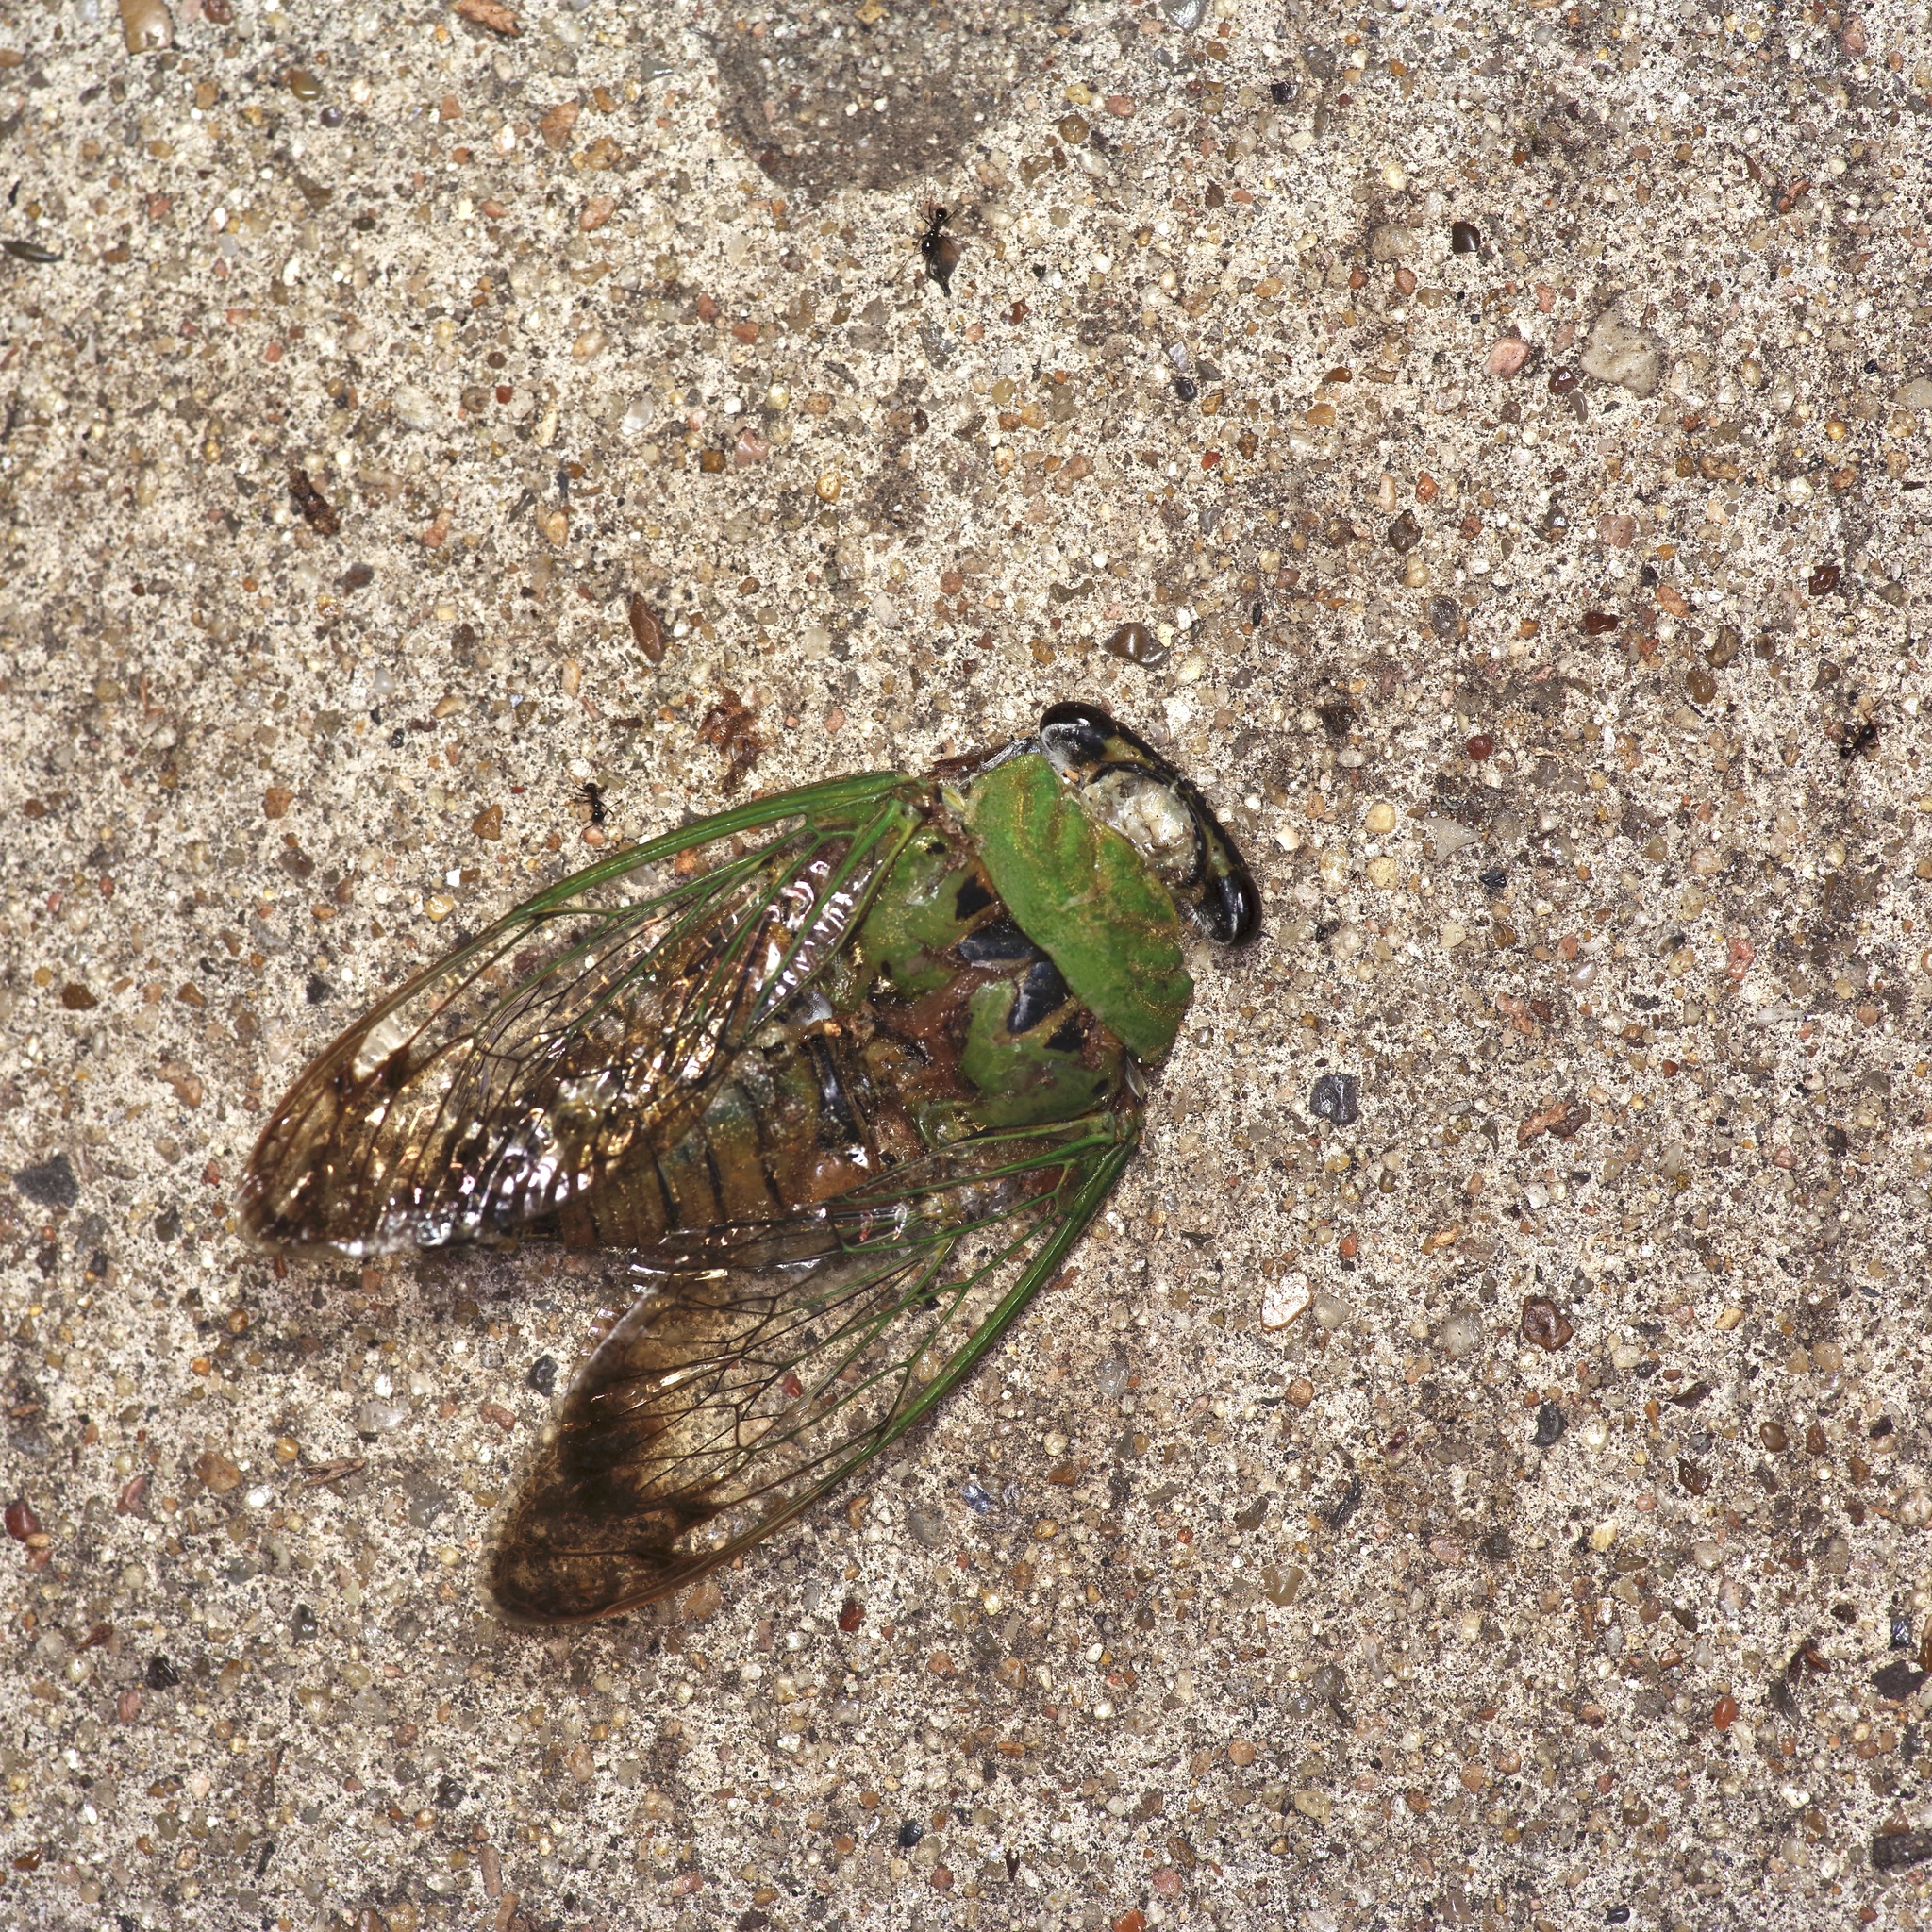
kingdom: Animalia
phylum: Arthropoda
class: Insecta
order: Hemiptera
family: Cicadidae
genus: Neotibicen
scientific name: Neotibicen superbus
